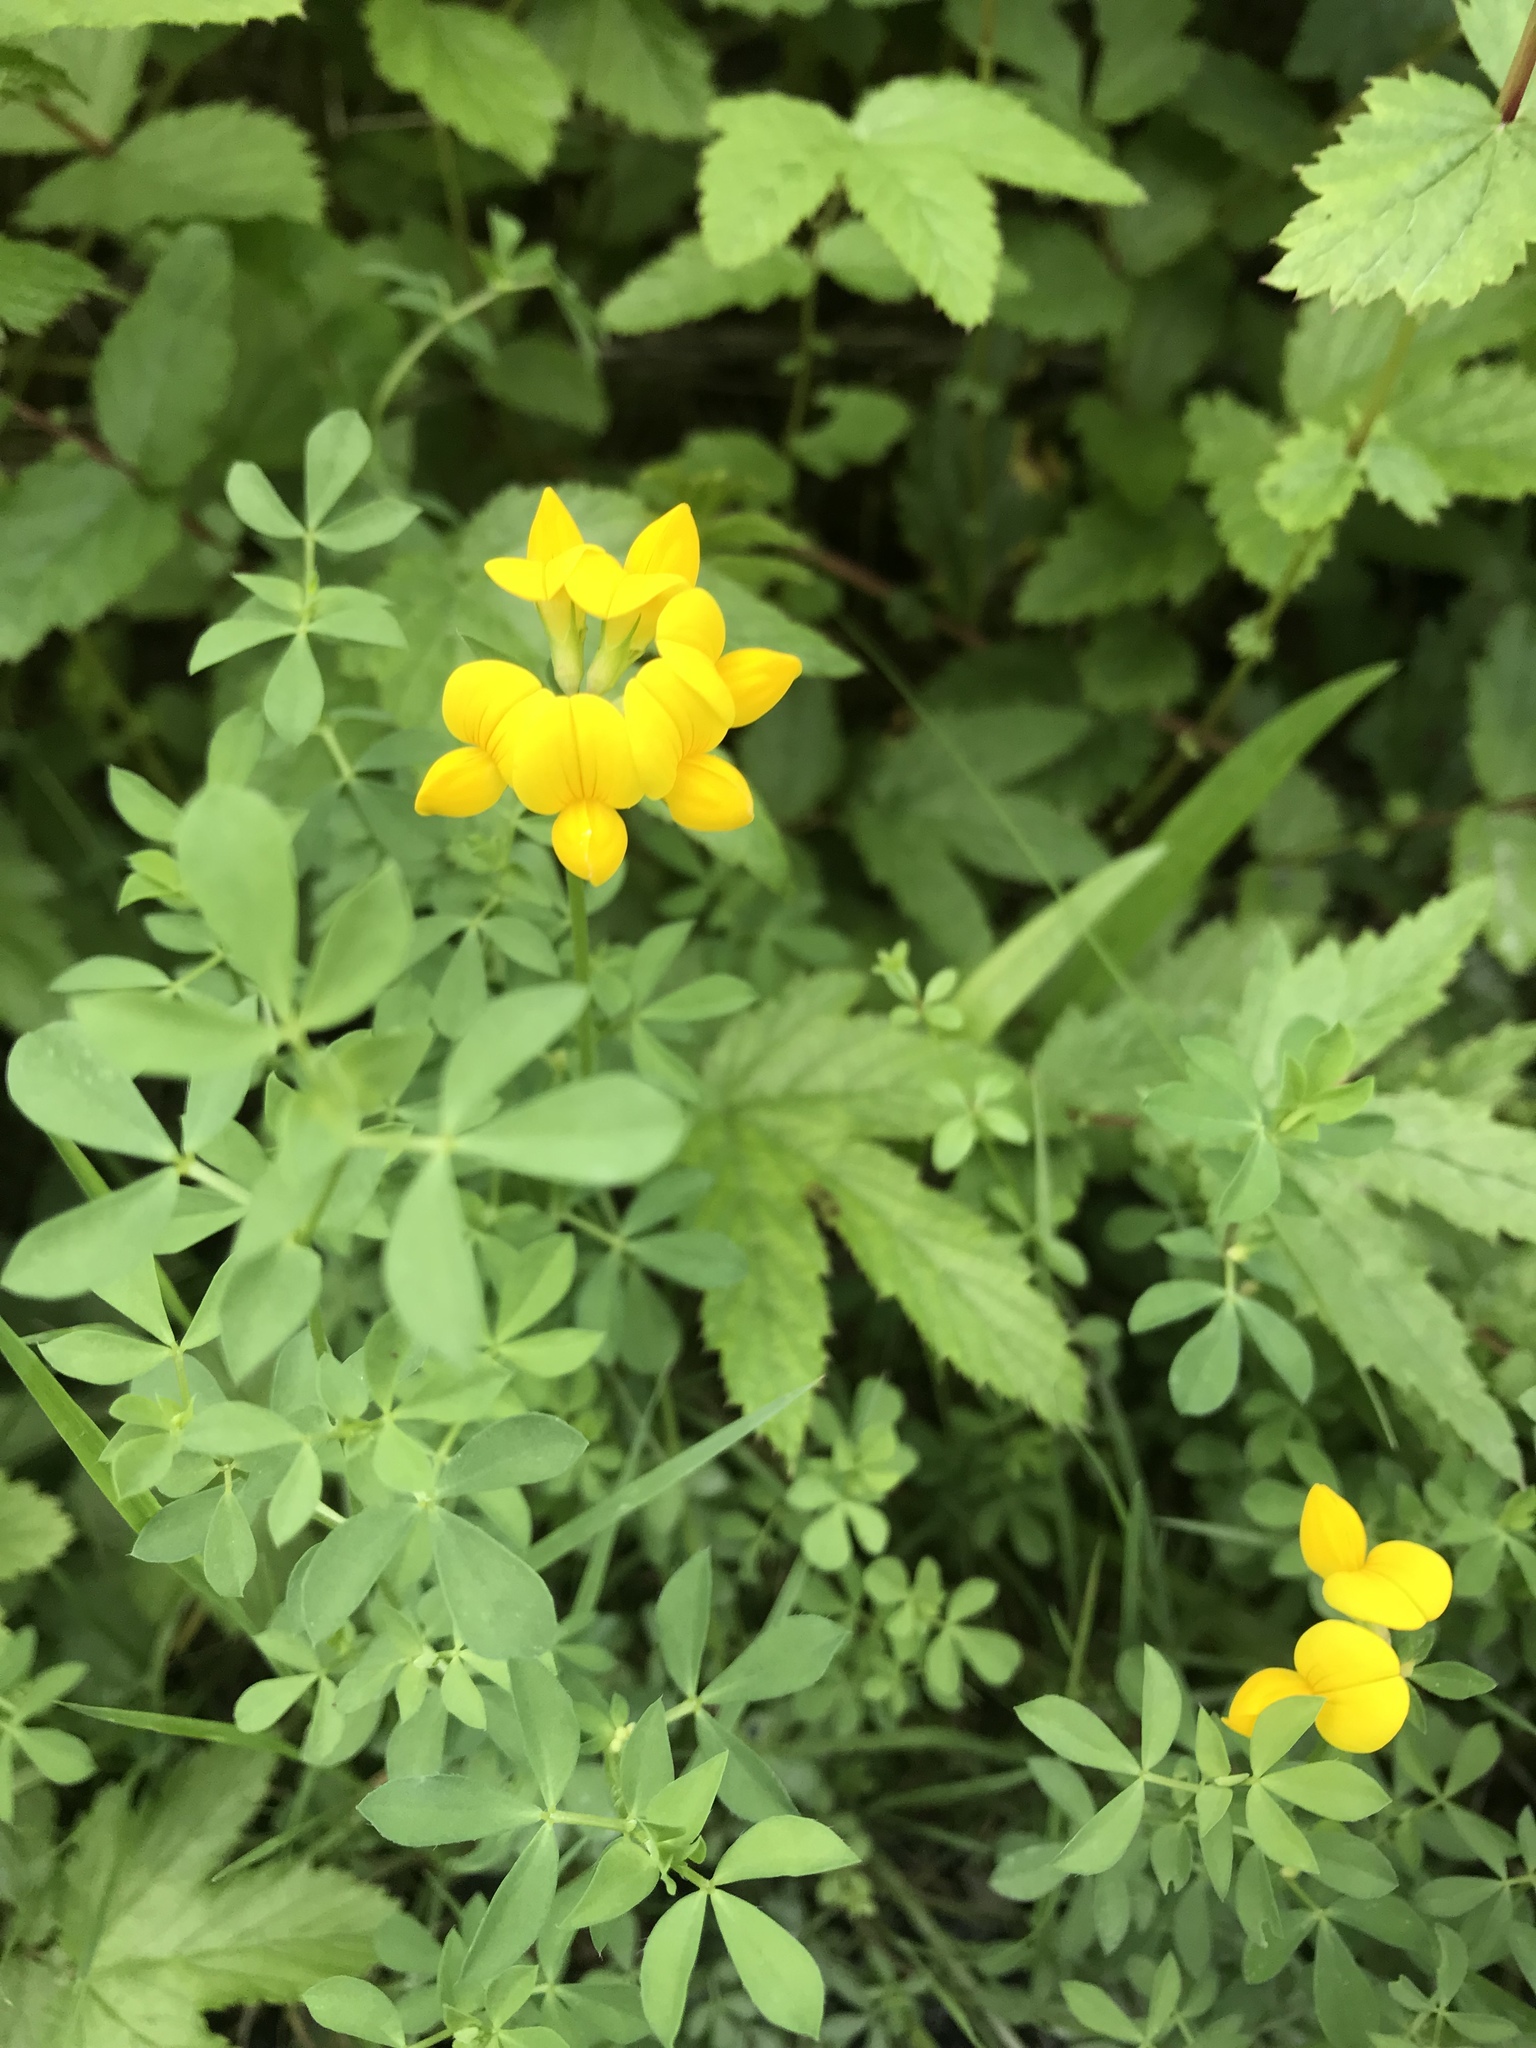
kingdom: Plantae
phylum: Tracheophyta
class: Magnoliopsida
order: Fabales
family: Fabaceae
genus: Lotus
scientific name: Lotus corniculatus
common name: Common bird's-foot-trefoil
